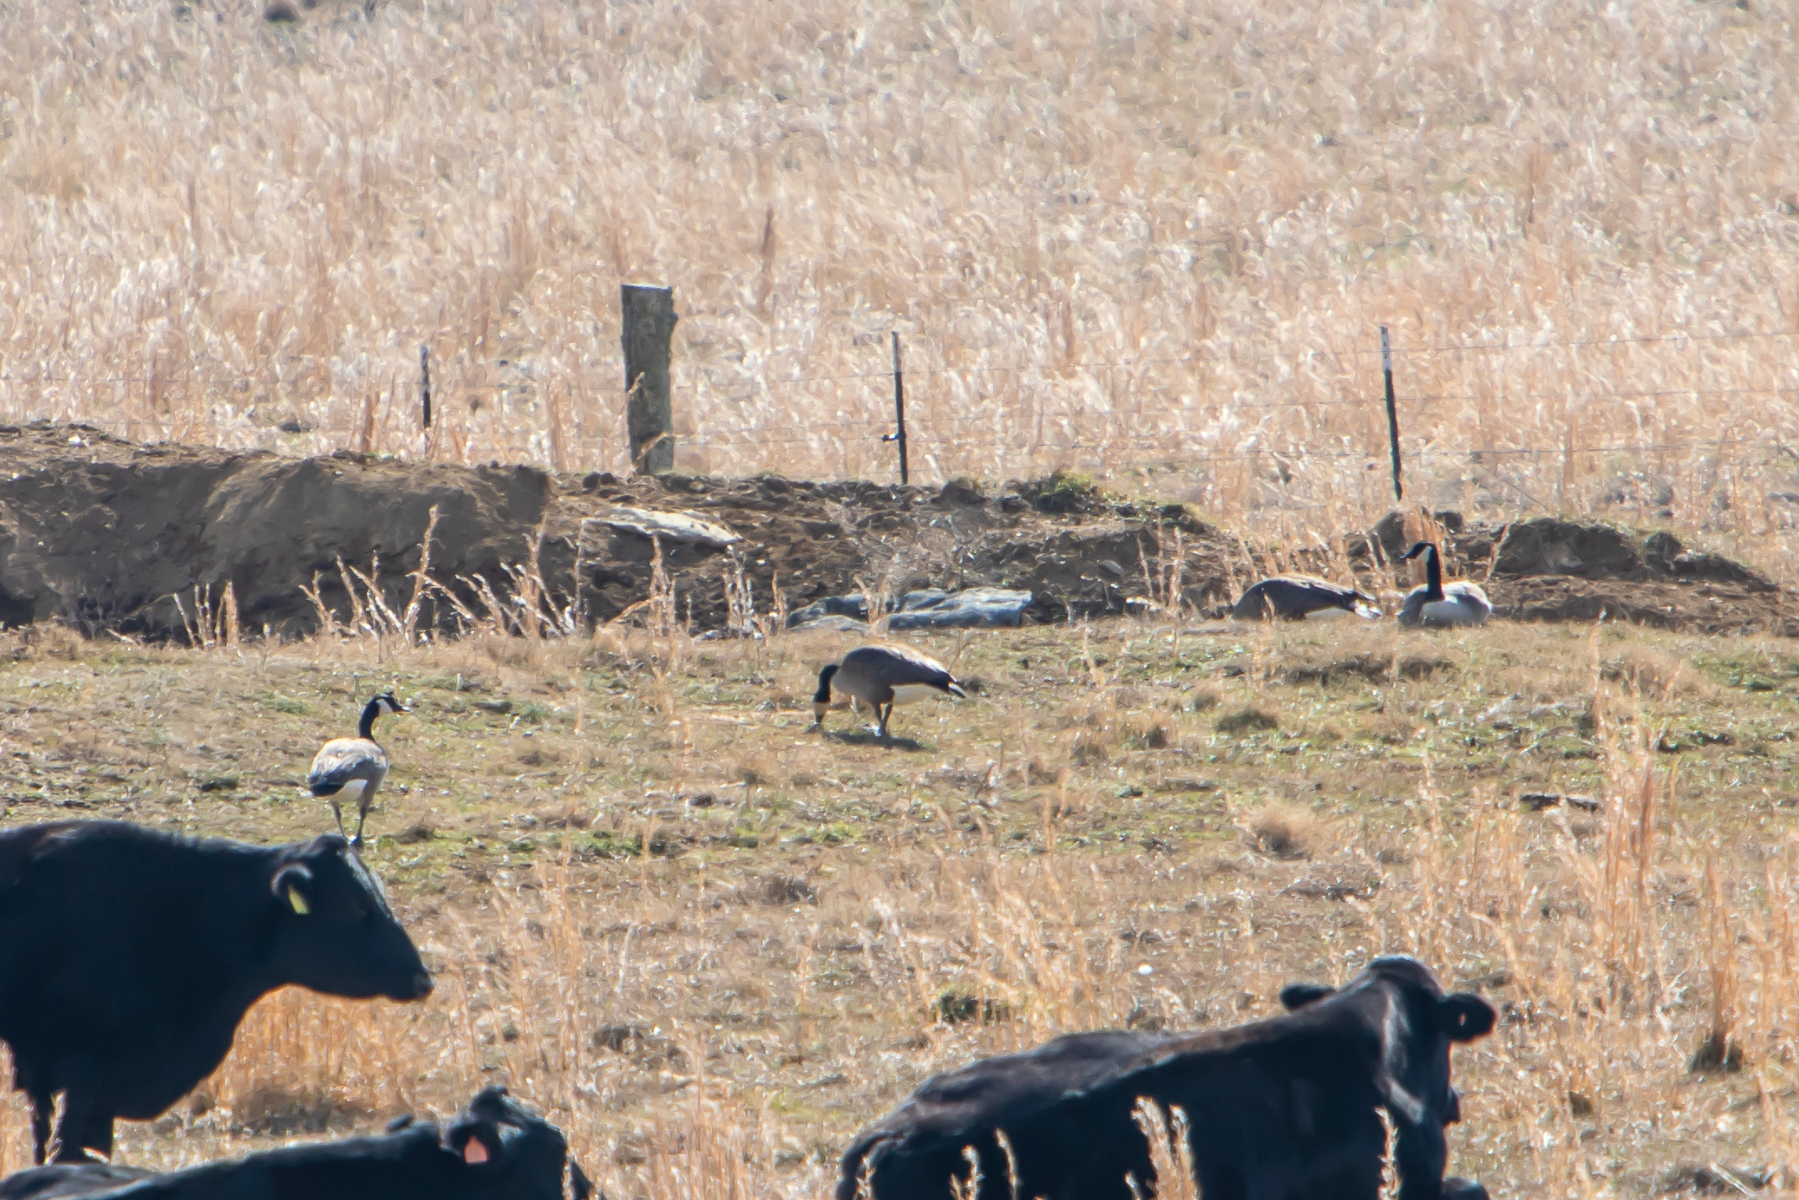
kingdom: Animalia
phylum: Chordata
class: Aves
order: Anseriformes
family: Anatidae
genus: Branta
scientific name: Branta canadensis
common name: Canada goose
